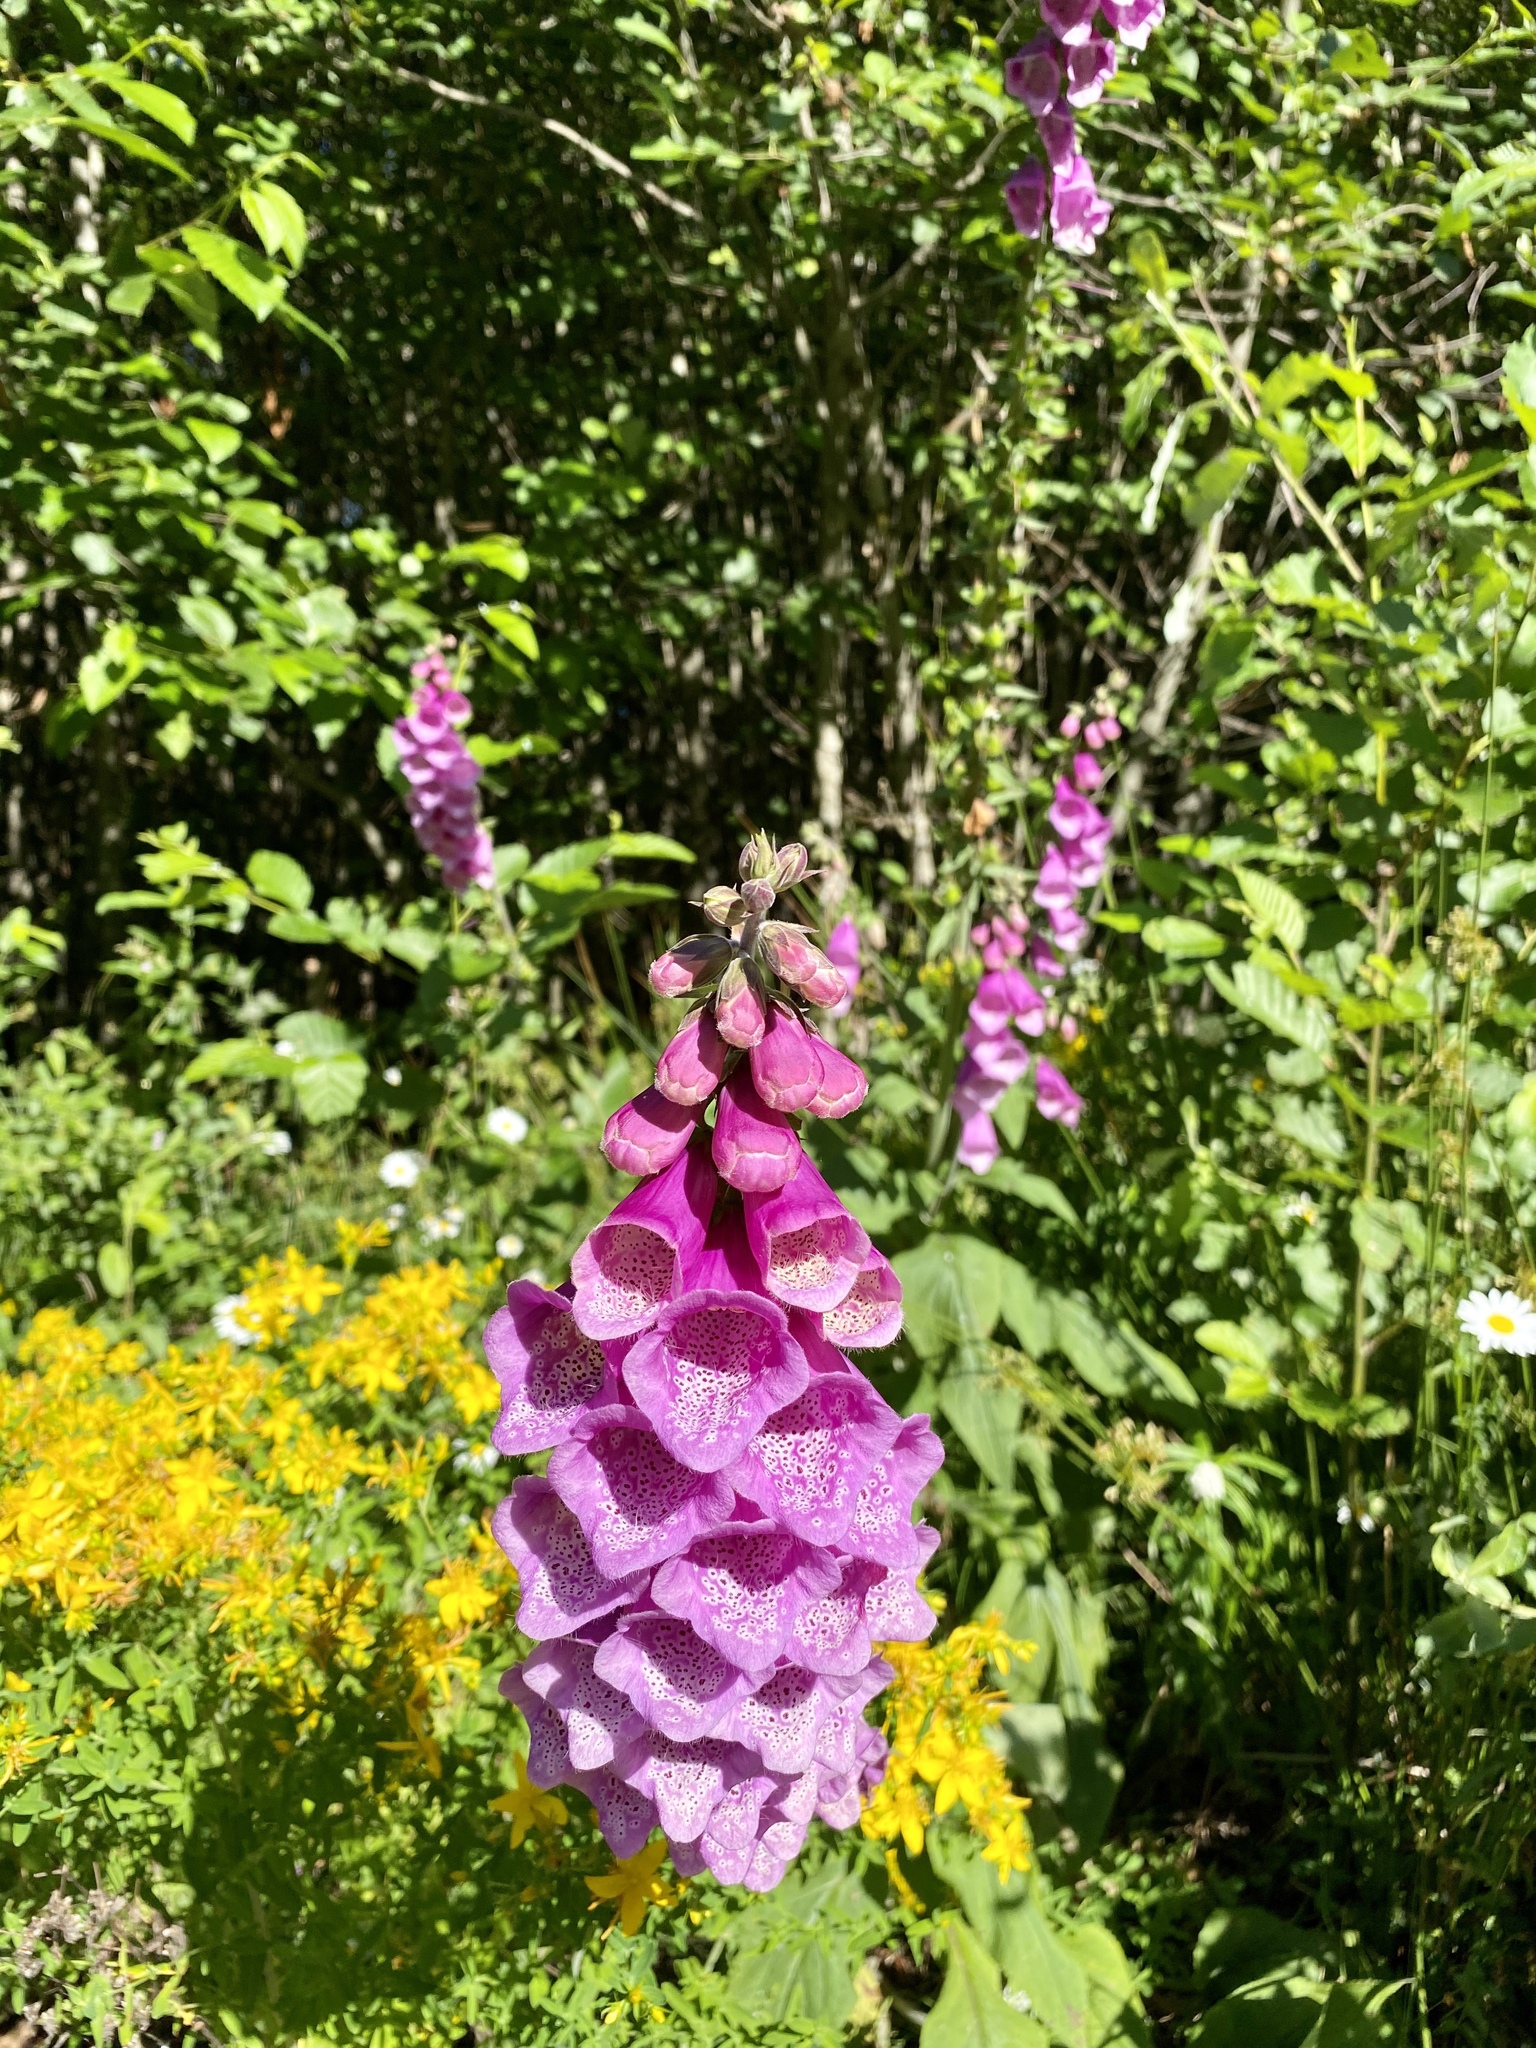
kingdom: Plantae
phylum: Tracheophyta
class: Magnoliopsida
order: Lamiales
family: Plantaginaceae
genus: Digitalis
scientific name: Digitalis purpurea
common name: Foxglove
